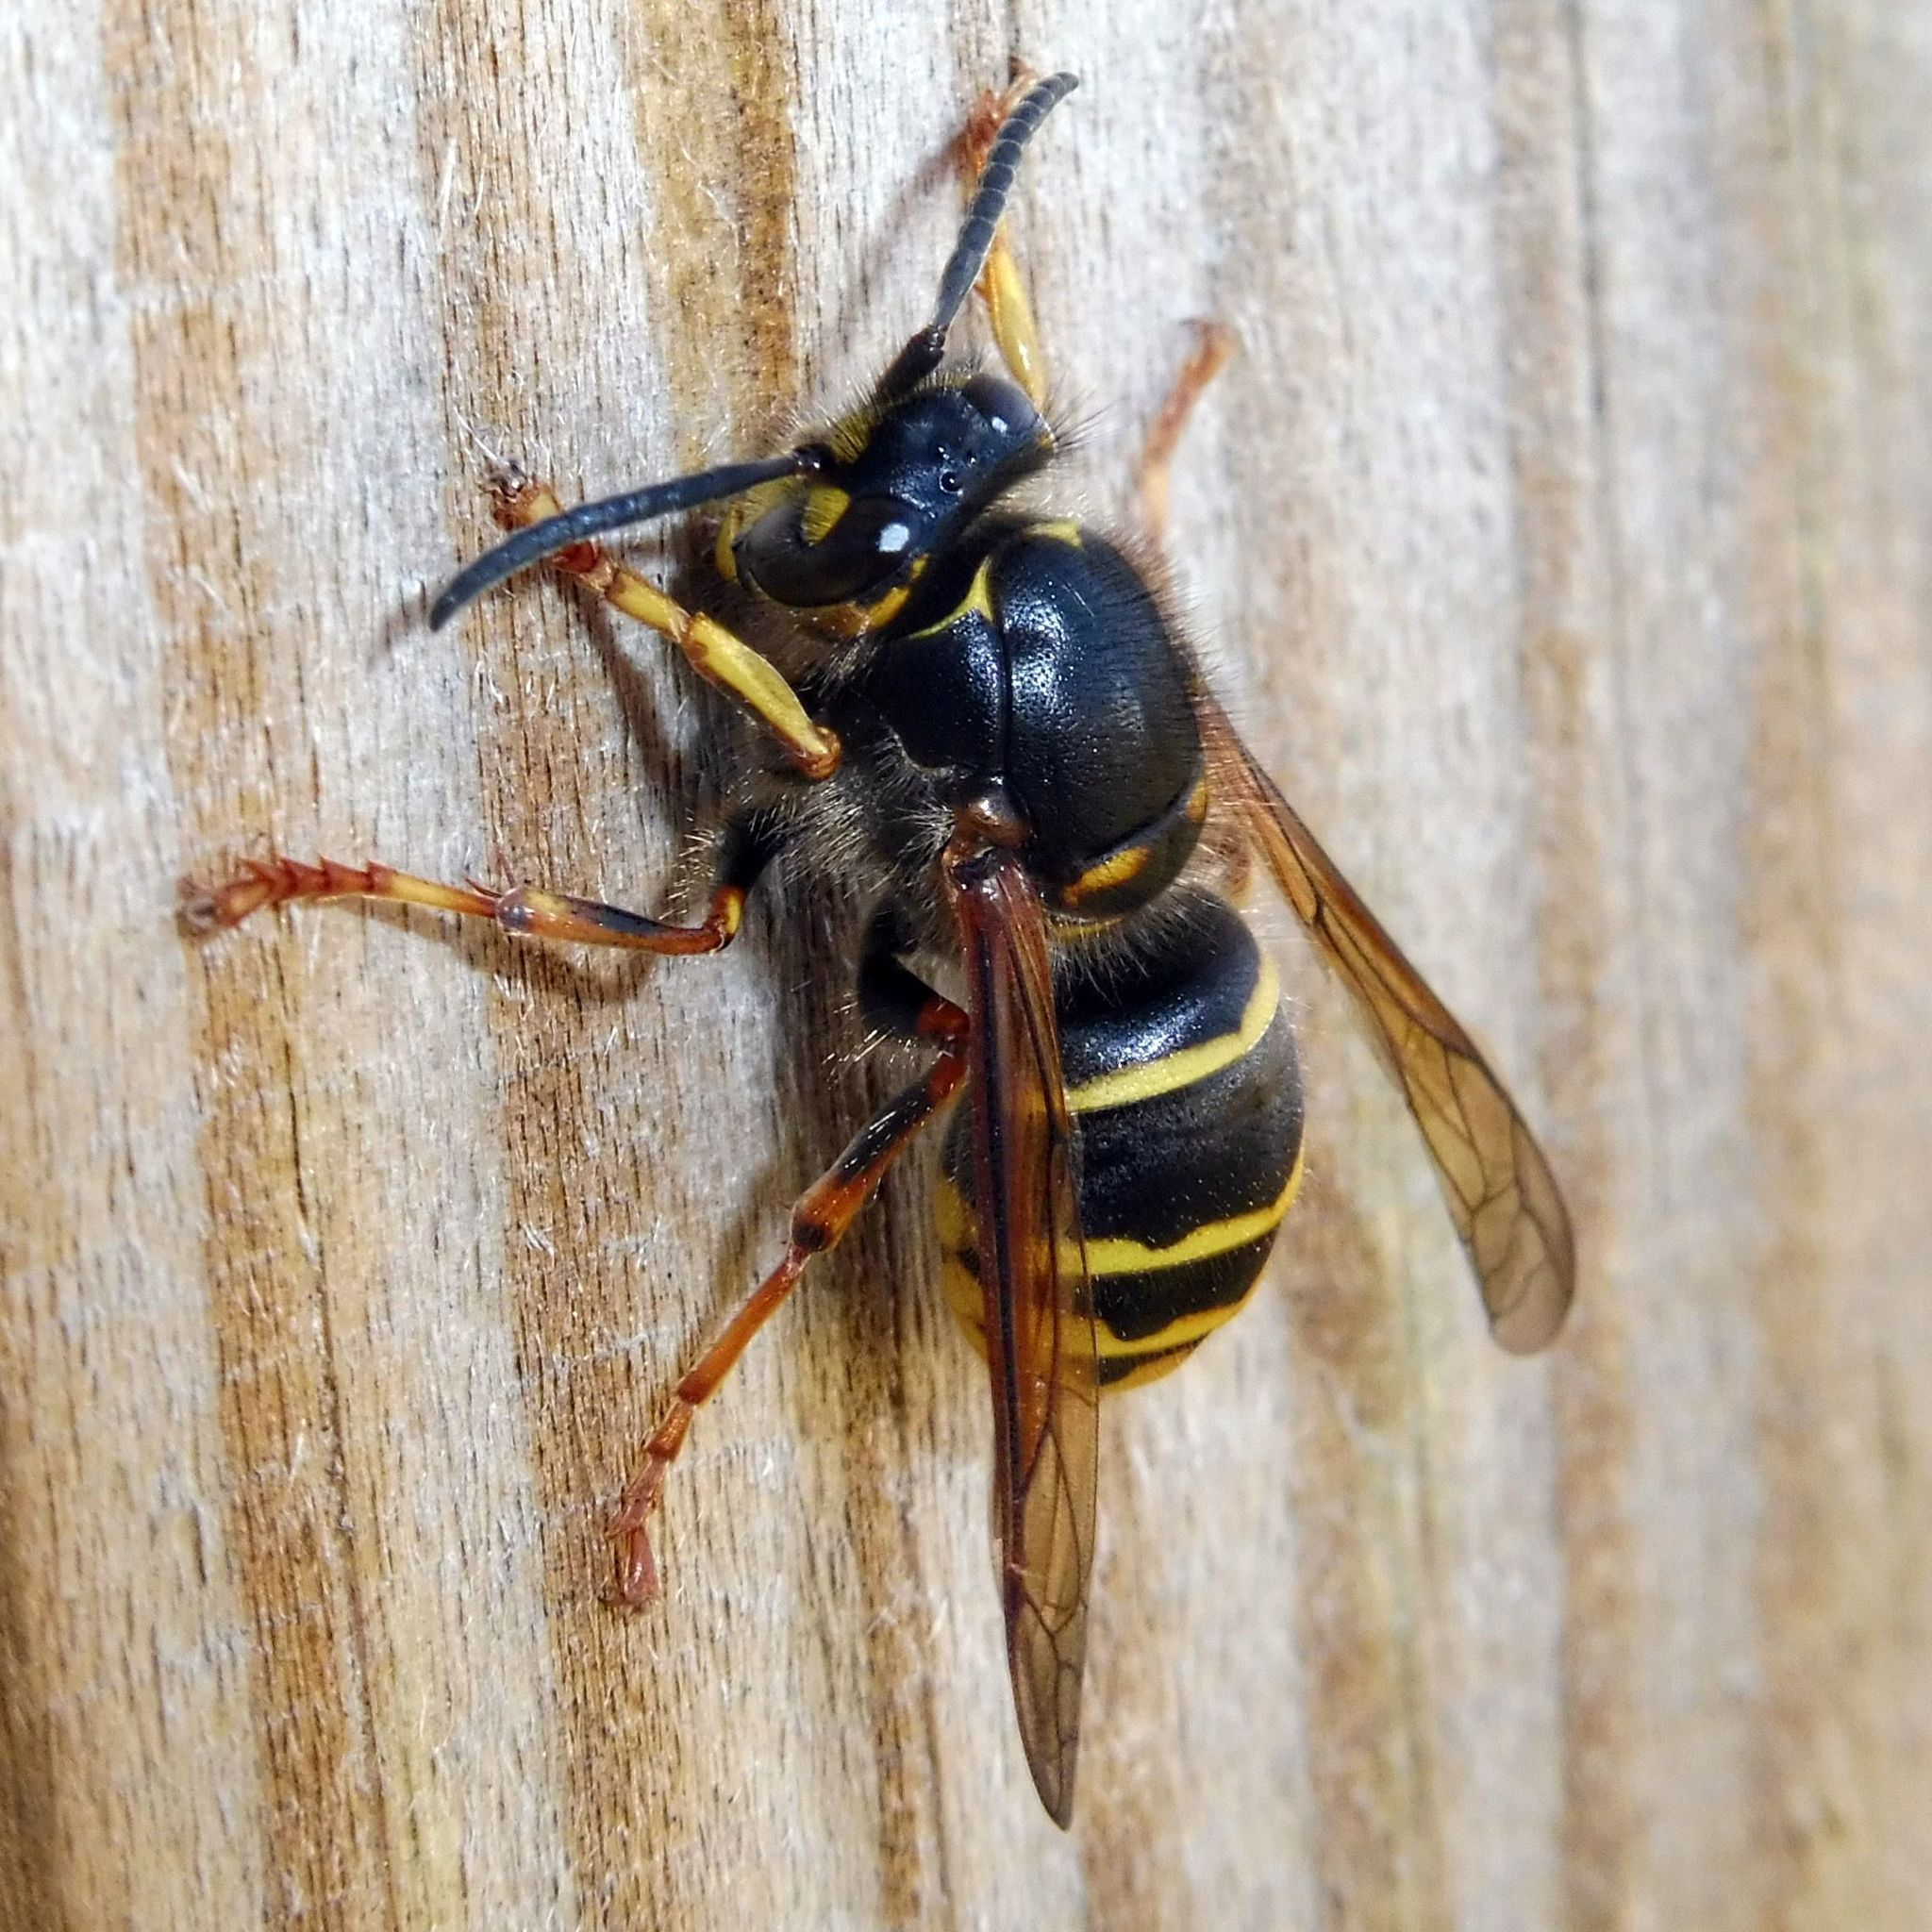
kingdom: Animalia
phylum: Arthropoda
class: Insecta
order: Hymenoptera
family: Vespidae
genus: Dolichovespula
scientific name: Dolichovespula media
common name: Median wasp
